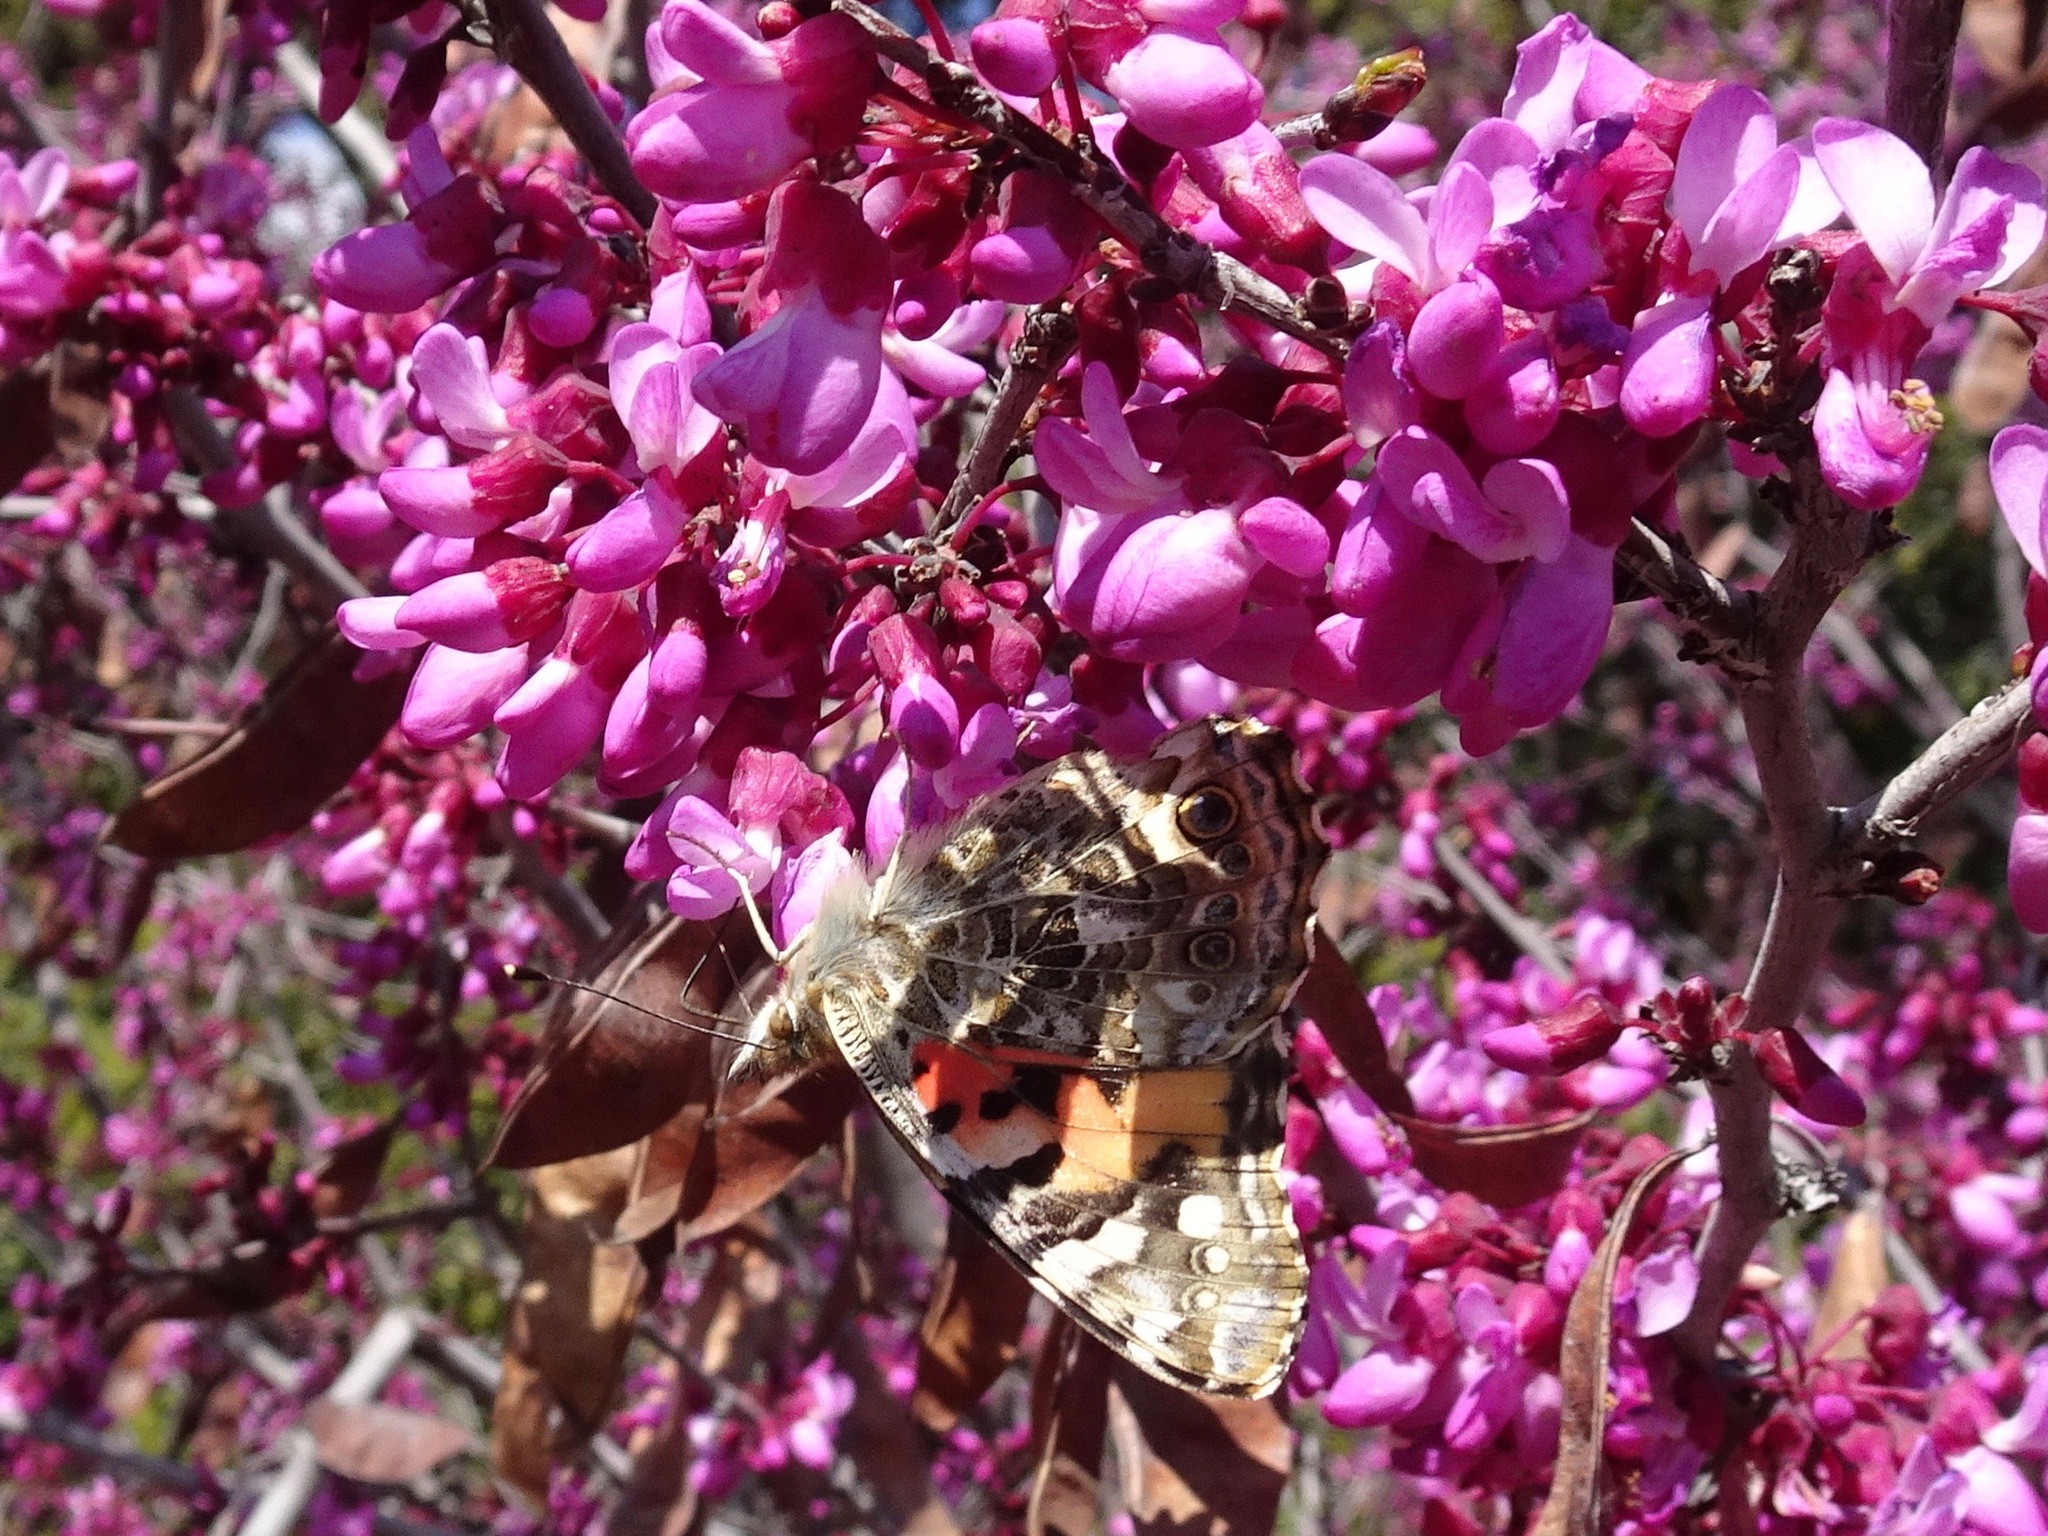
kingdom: Animalia
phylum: Arthropoda
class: Insecta
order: Lepidoptera
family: Nymphalidae
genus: Vanessa
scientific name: Vanessa cardui
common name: Painted lady
